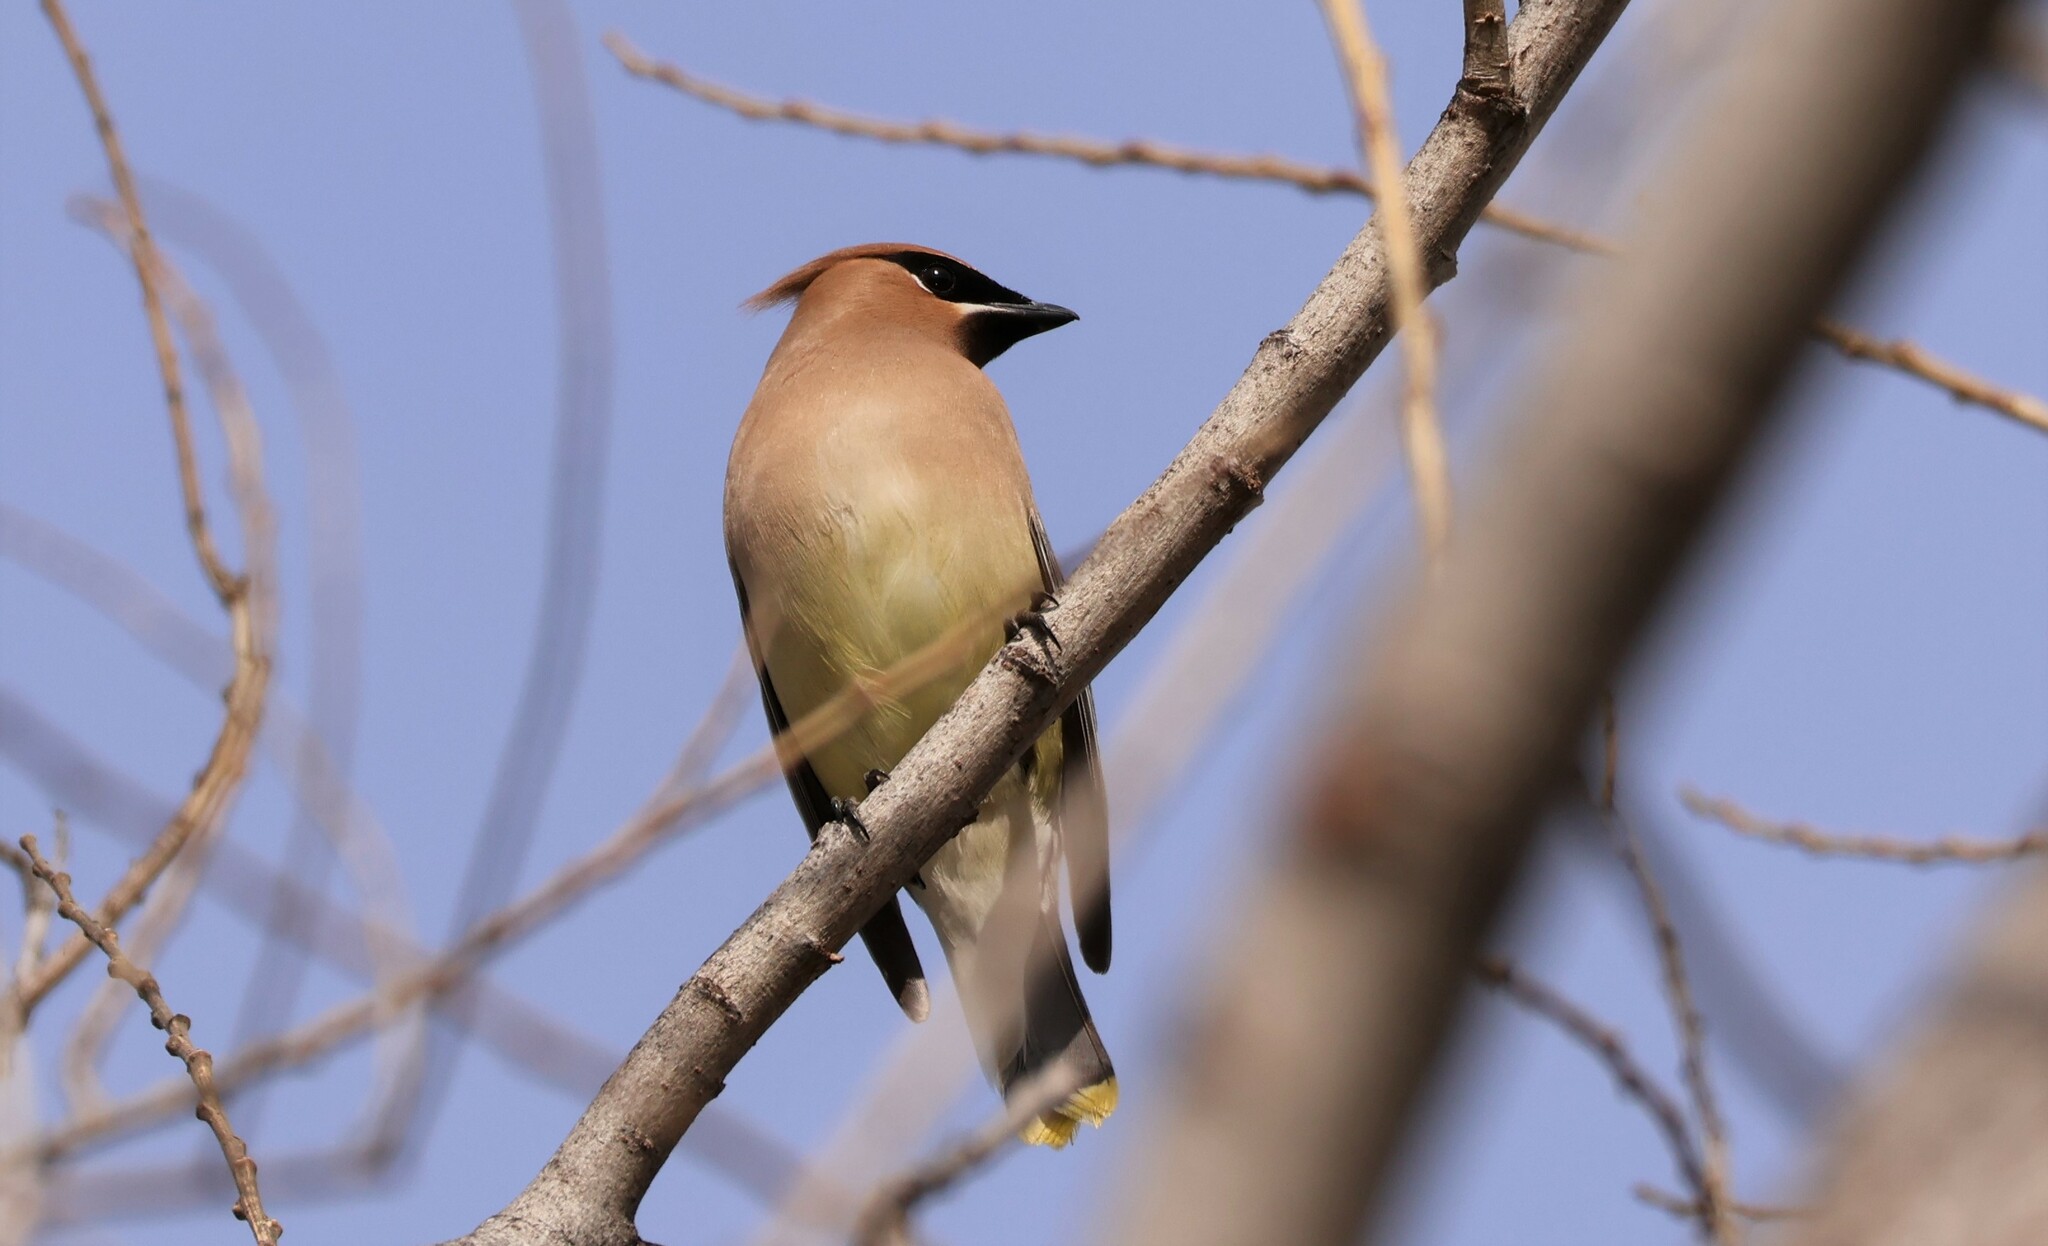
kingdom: Animalia
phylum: Chordata
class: Aves
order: Passeriformes
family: Bombycillidae
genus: Bombycilla
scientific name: Bombycilla cedrorum
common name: Cedar waxwing
